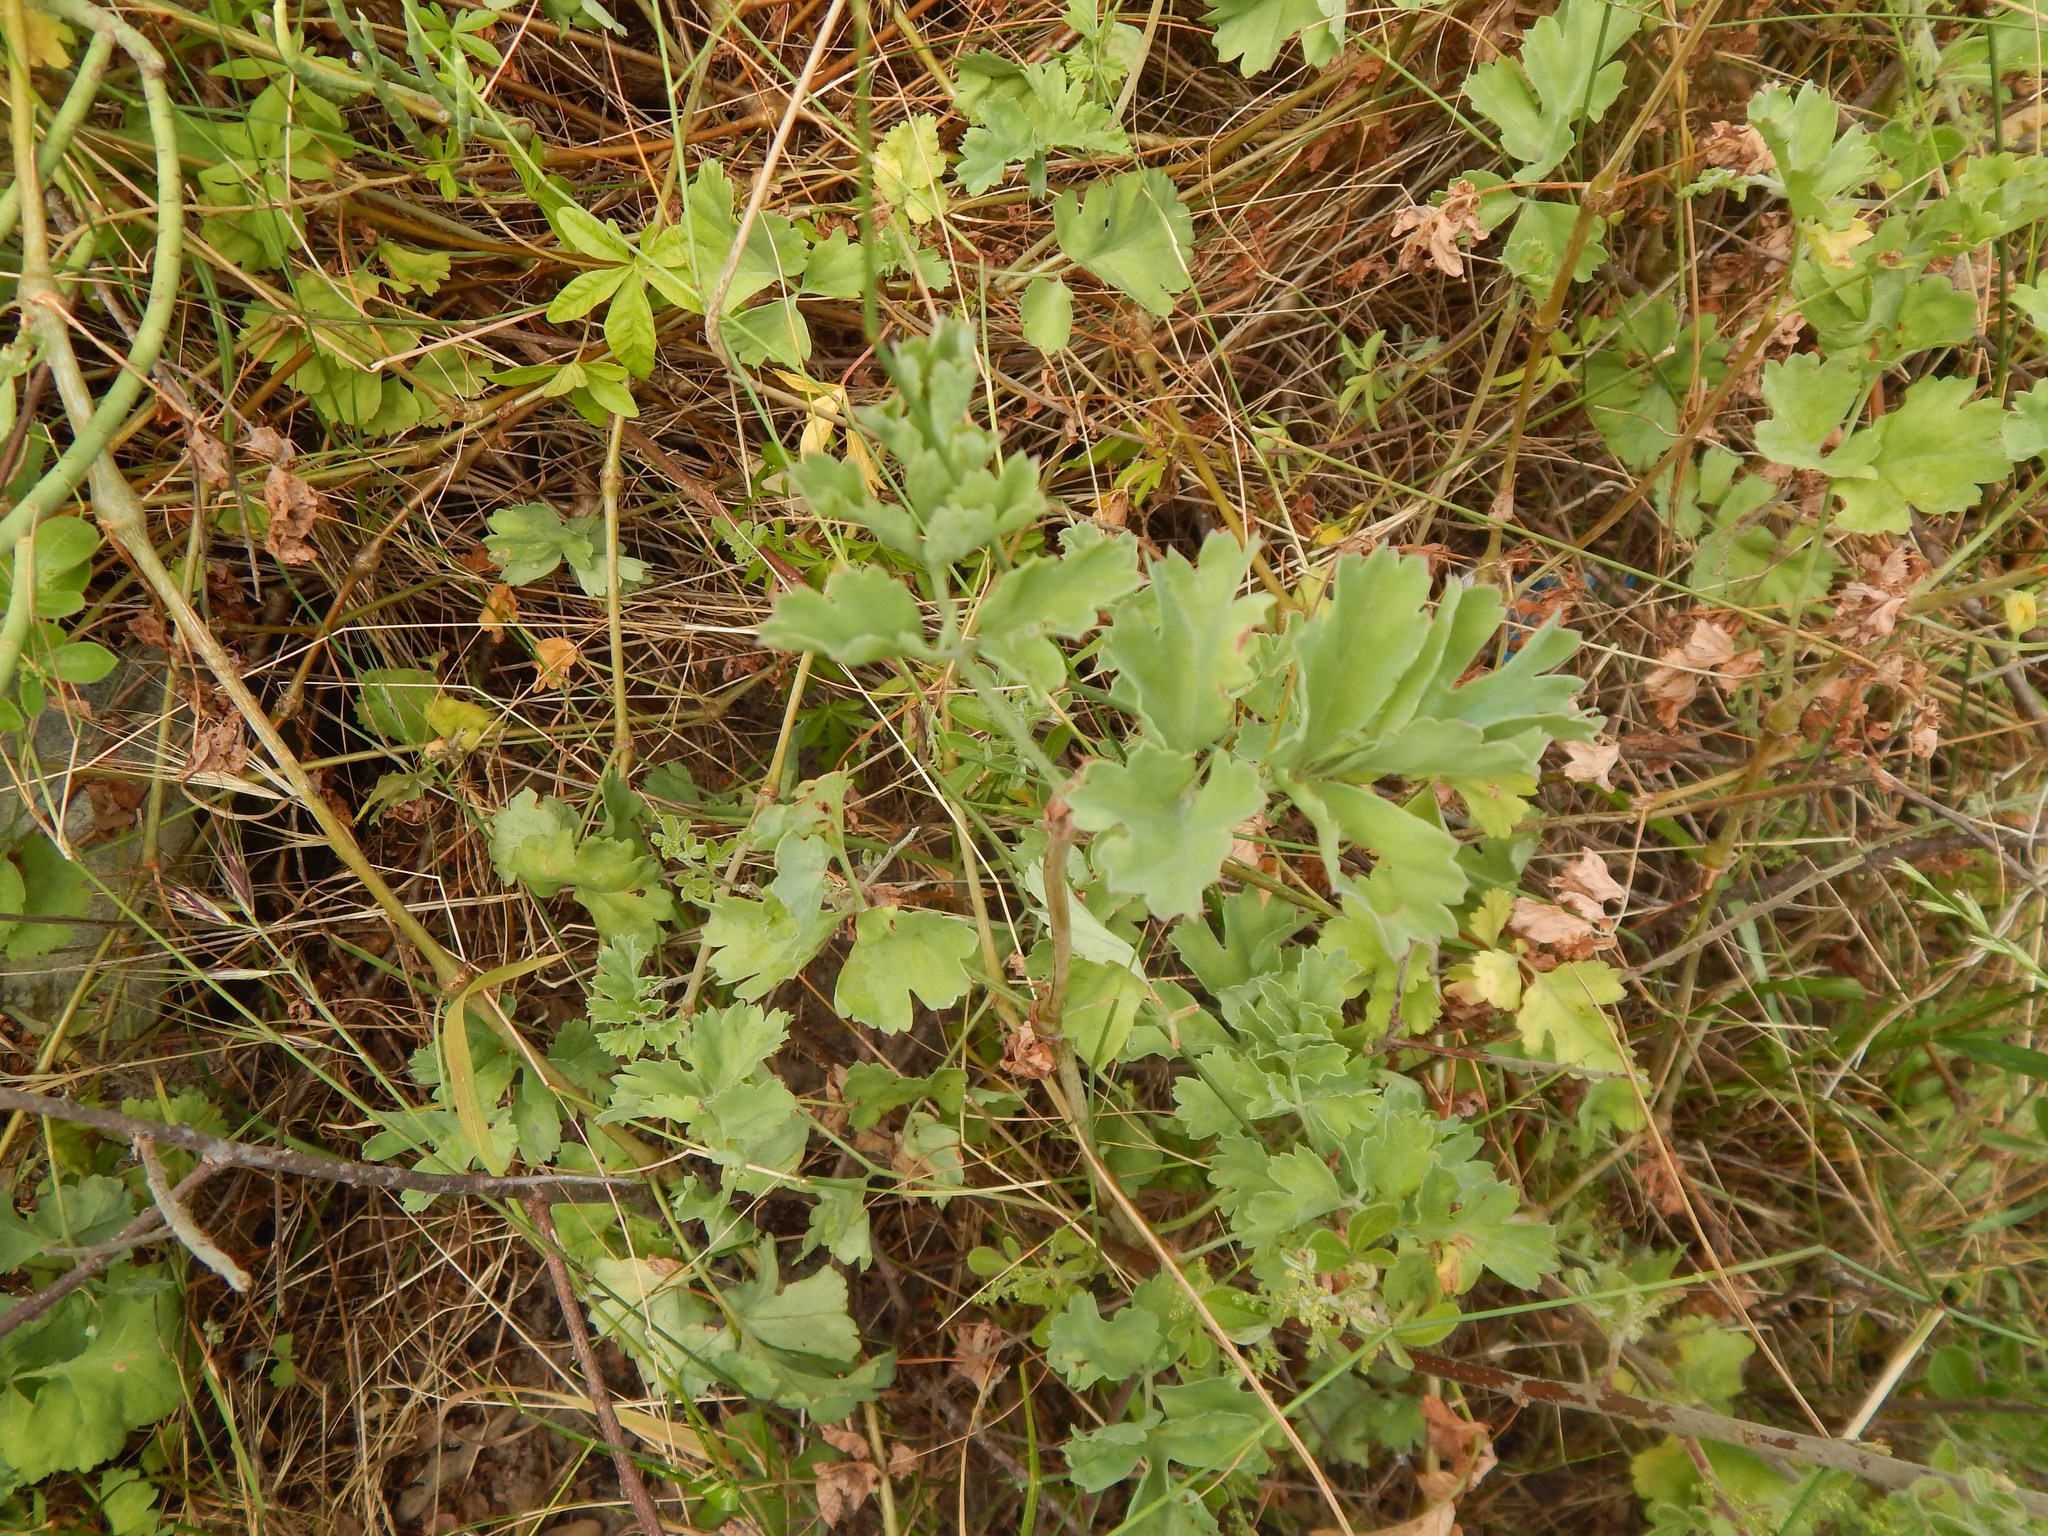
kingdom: Plantae
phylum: Tracheophyta
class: Magnoliopsida
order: Geraniales
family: Geraniaceae
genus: Pelargonium
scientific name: Pelargonium gibbosum
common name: Gouty geranium
